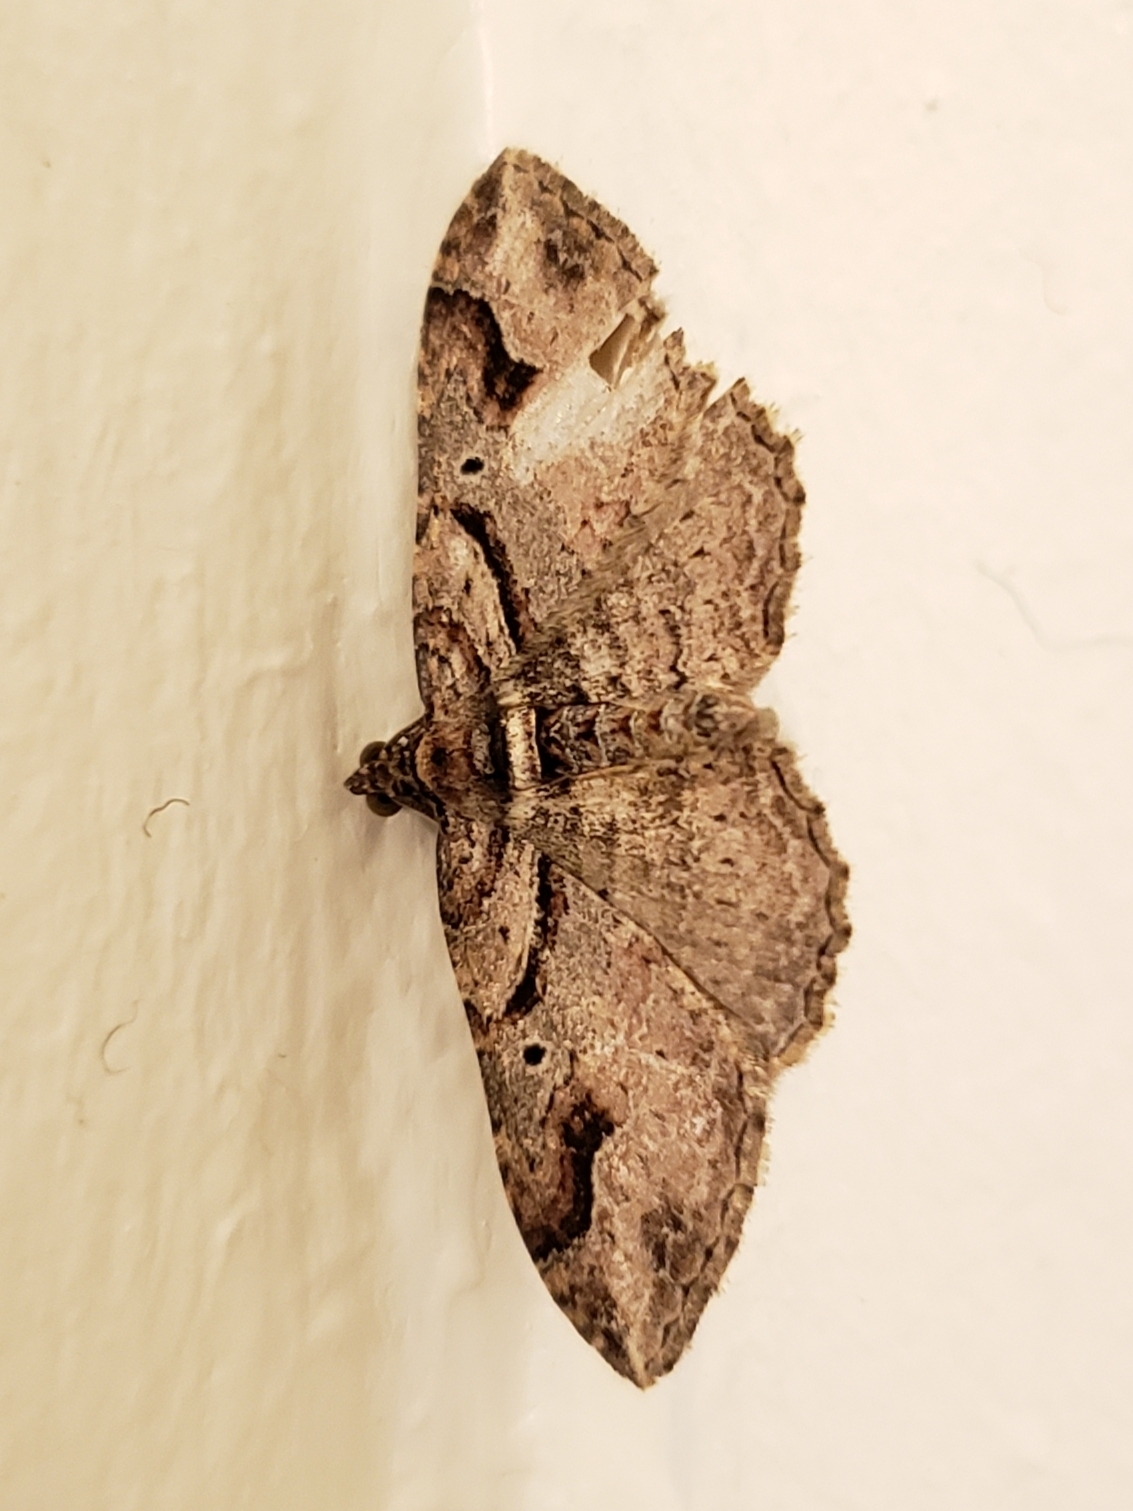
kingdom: Animalia
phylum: Arthropoda
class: Insecta
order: Lepidoptera
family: Geometridae
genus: Costaconvexa
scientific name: Costaconvexa centrostrigaria
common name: Bent-line carpet
